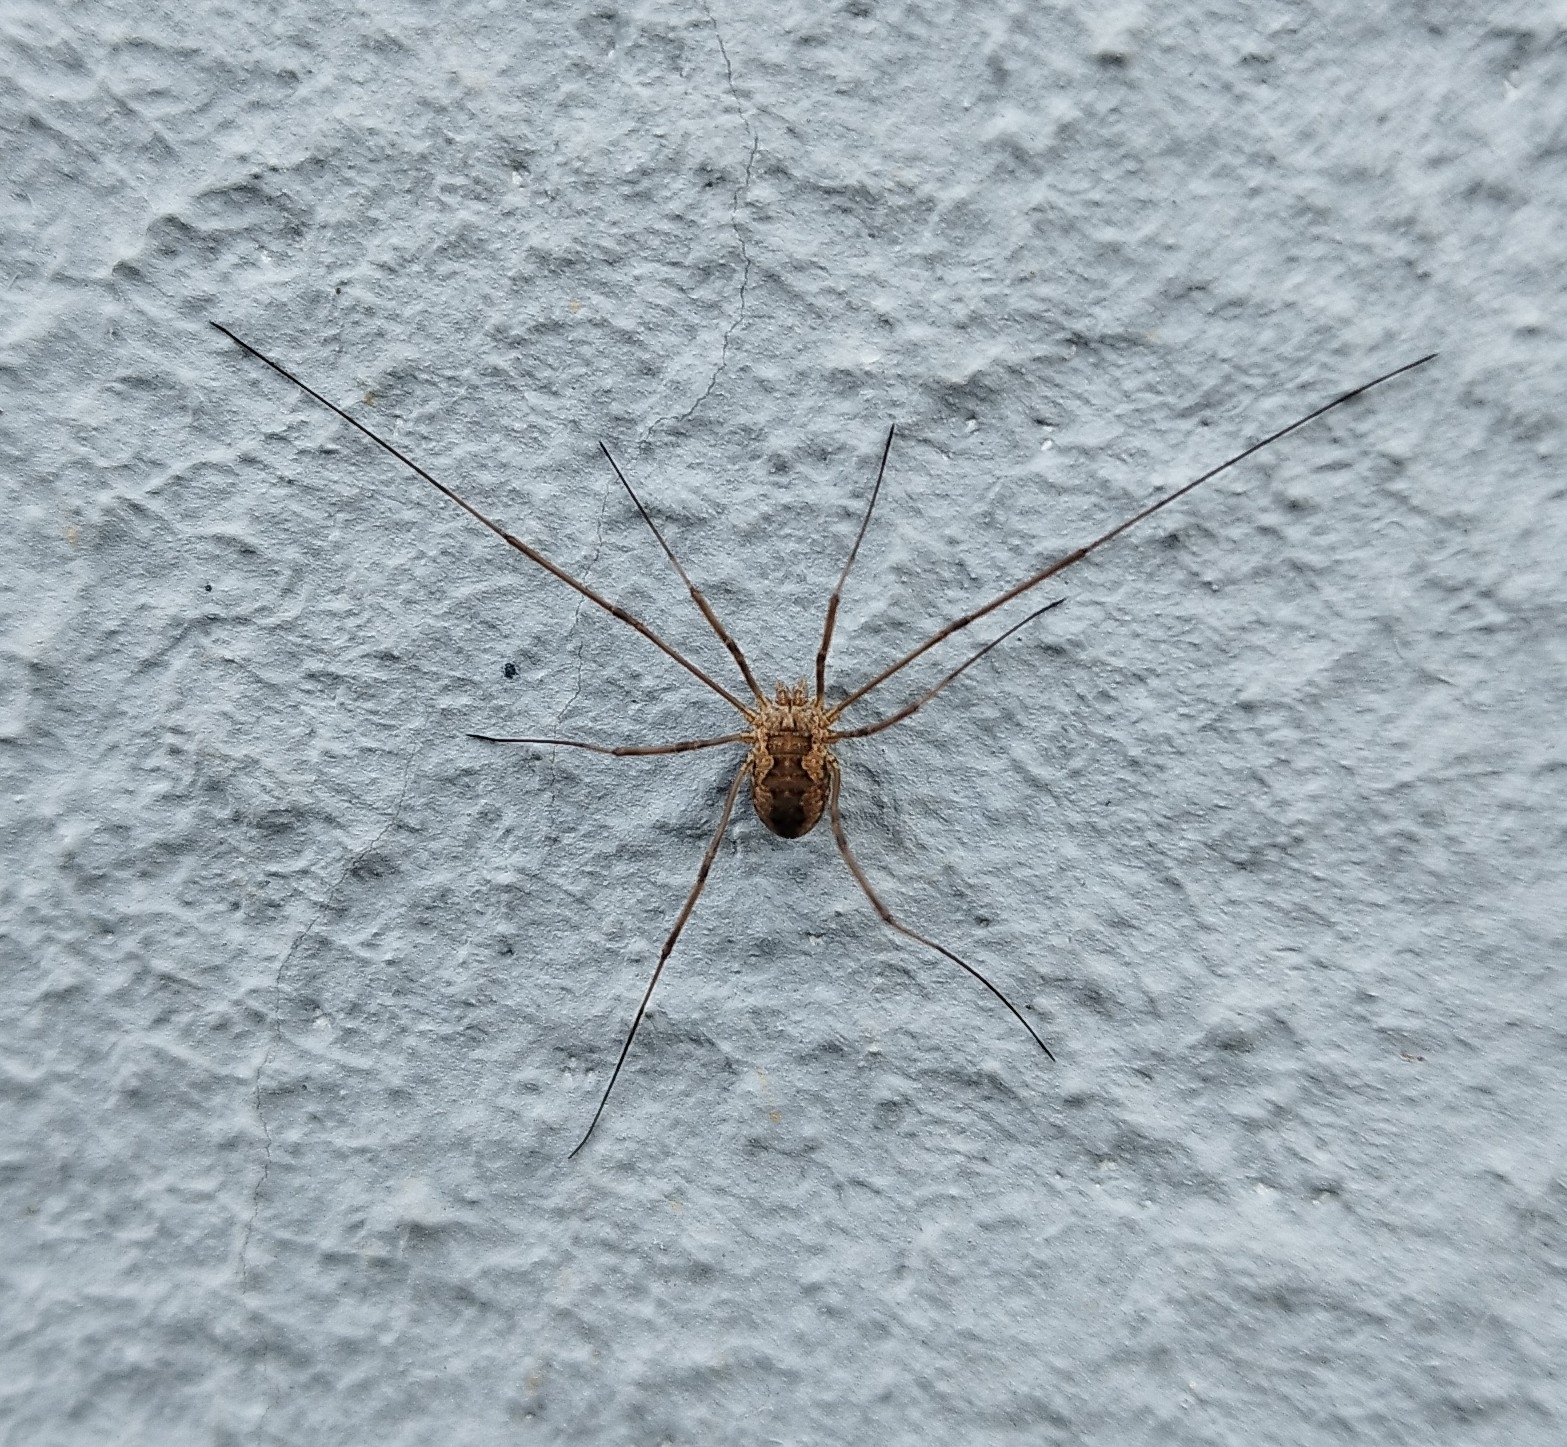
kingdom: Animalia
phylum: Arthropoda
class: Arachnida
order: Opiliones
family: Phalangiidae
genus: Phalangium
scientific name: Phalangium opilio
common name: Daddy longleg
